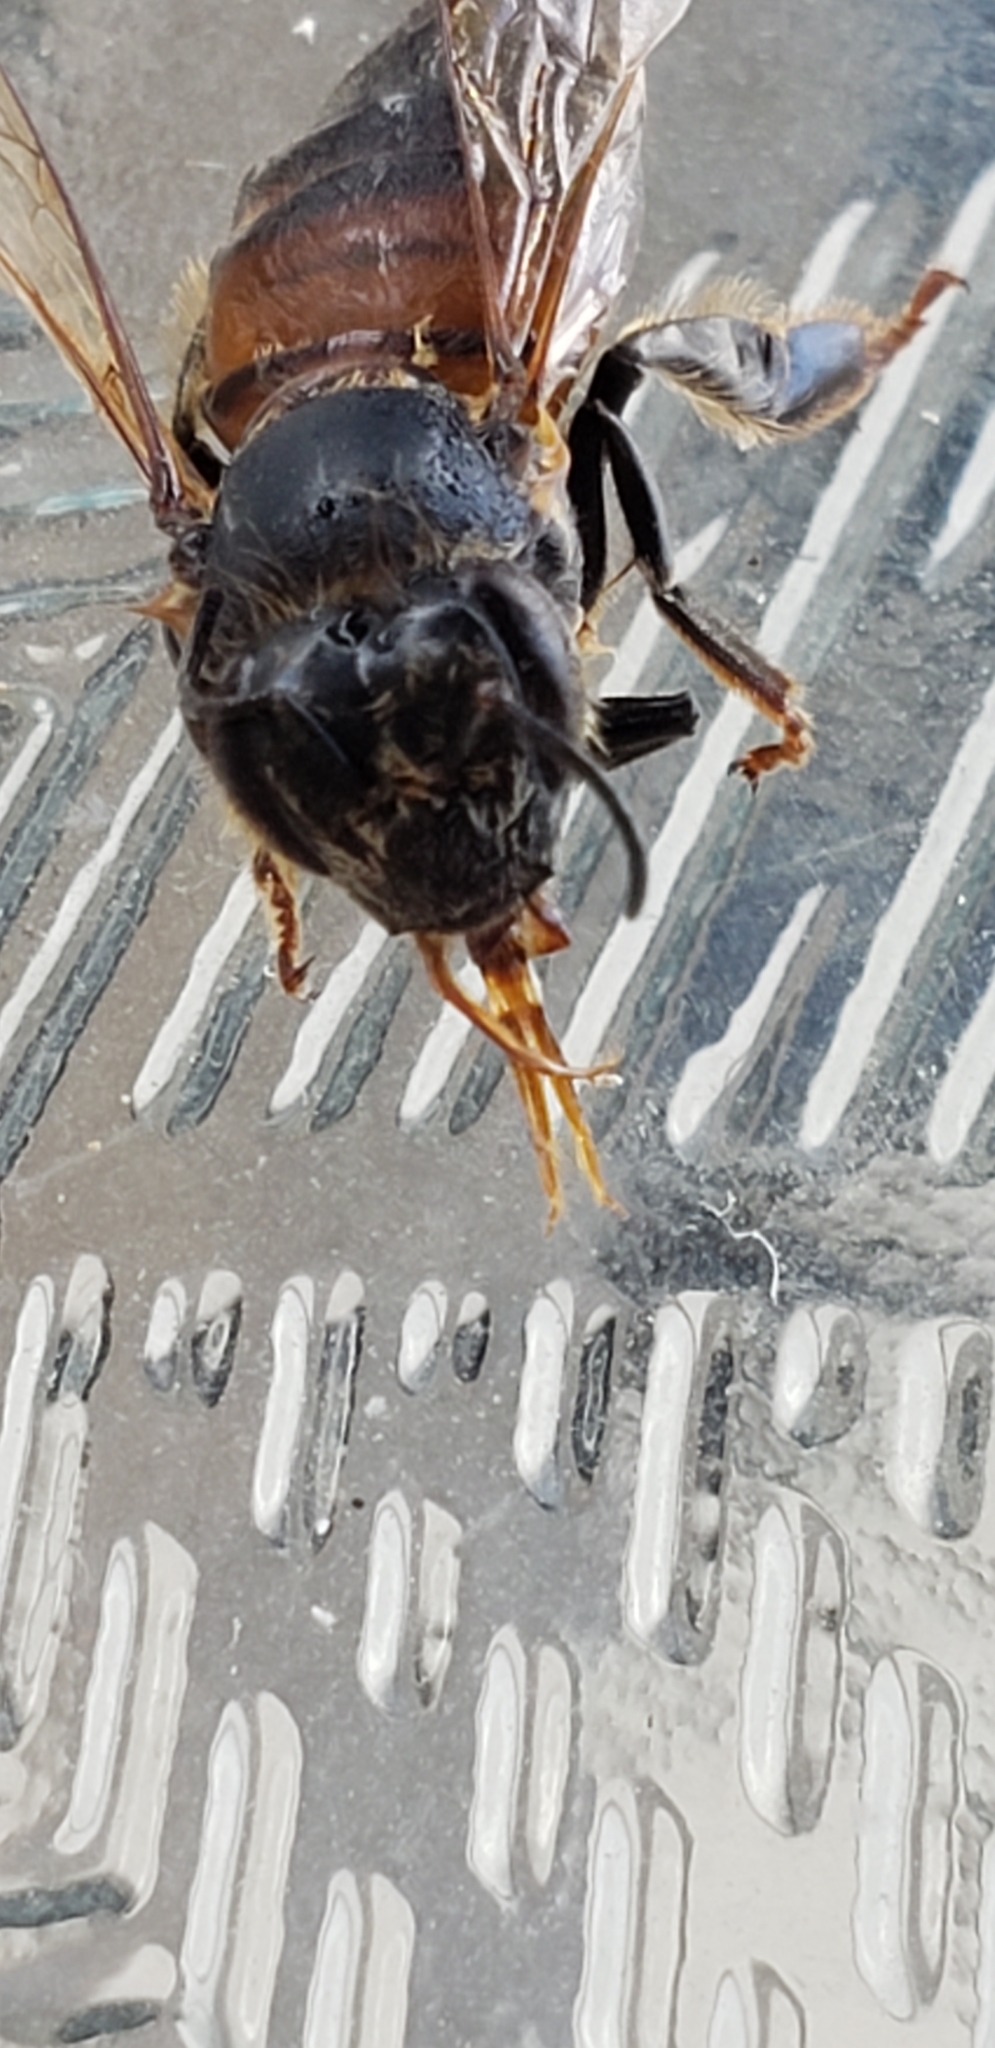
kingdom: Animalia
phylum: Arthropoda
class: Insecta
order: Hymenoptera
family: Apidae
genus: Apis
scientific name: Apis mellifera
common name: Honey bee
